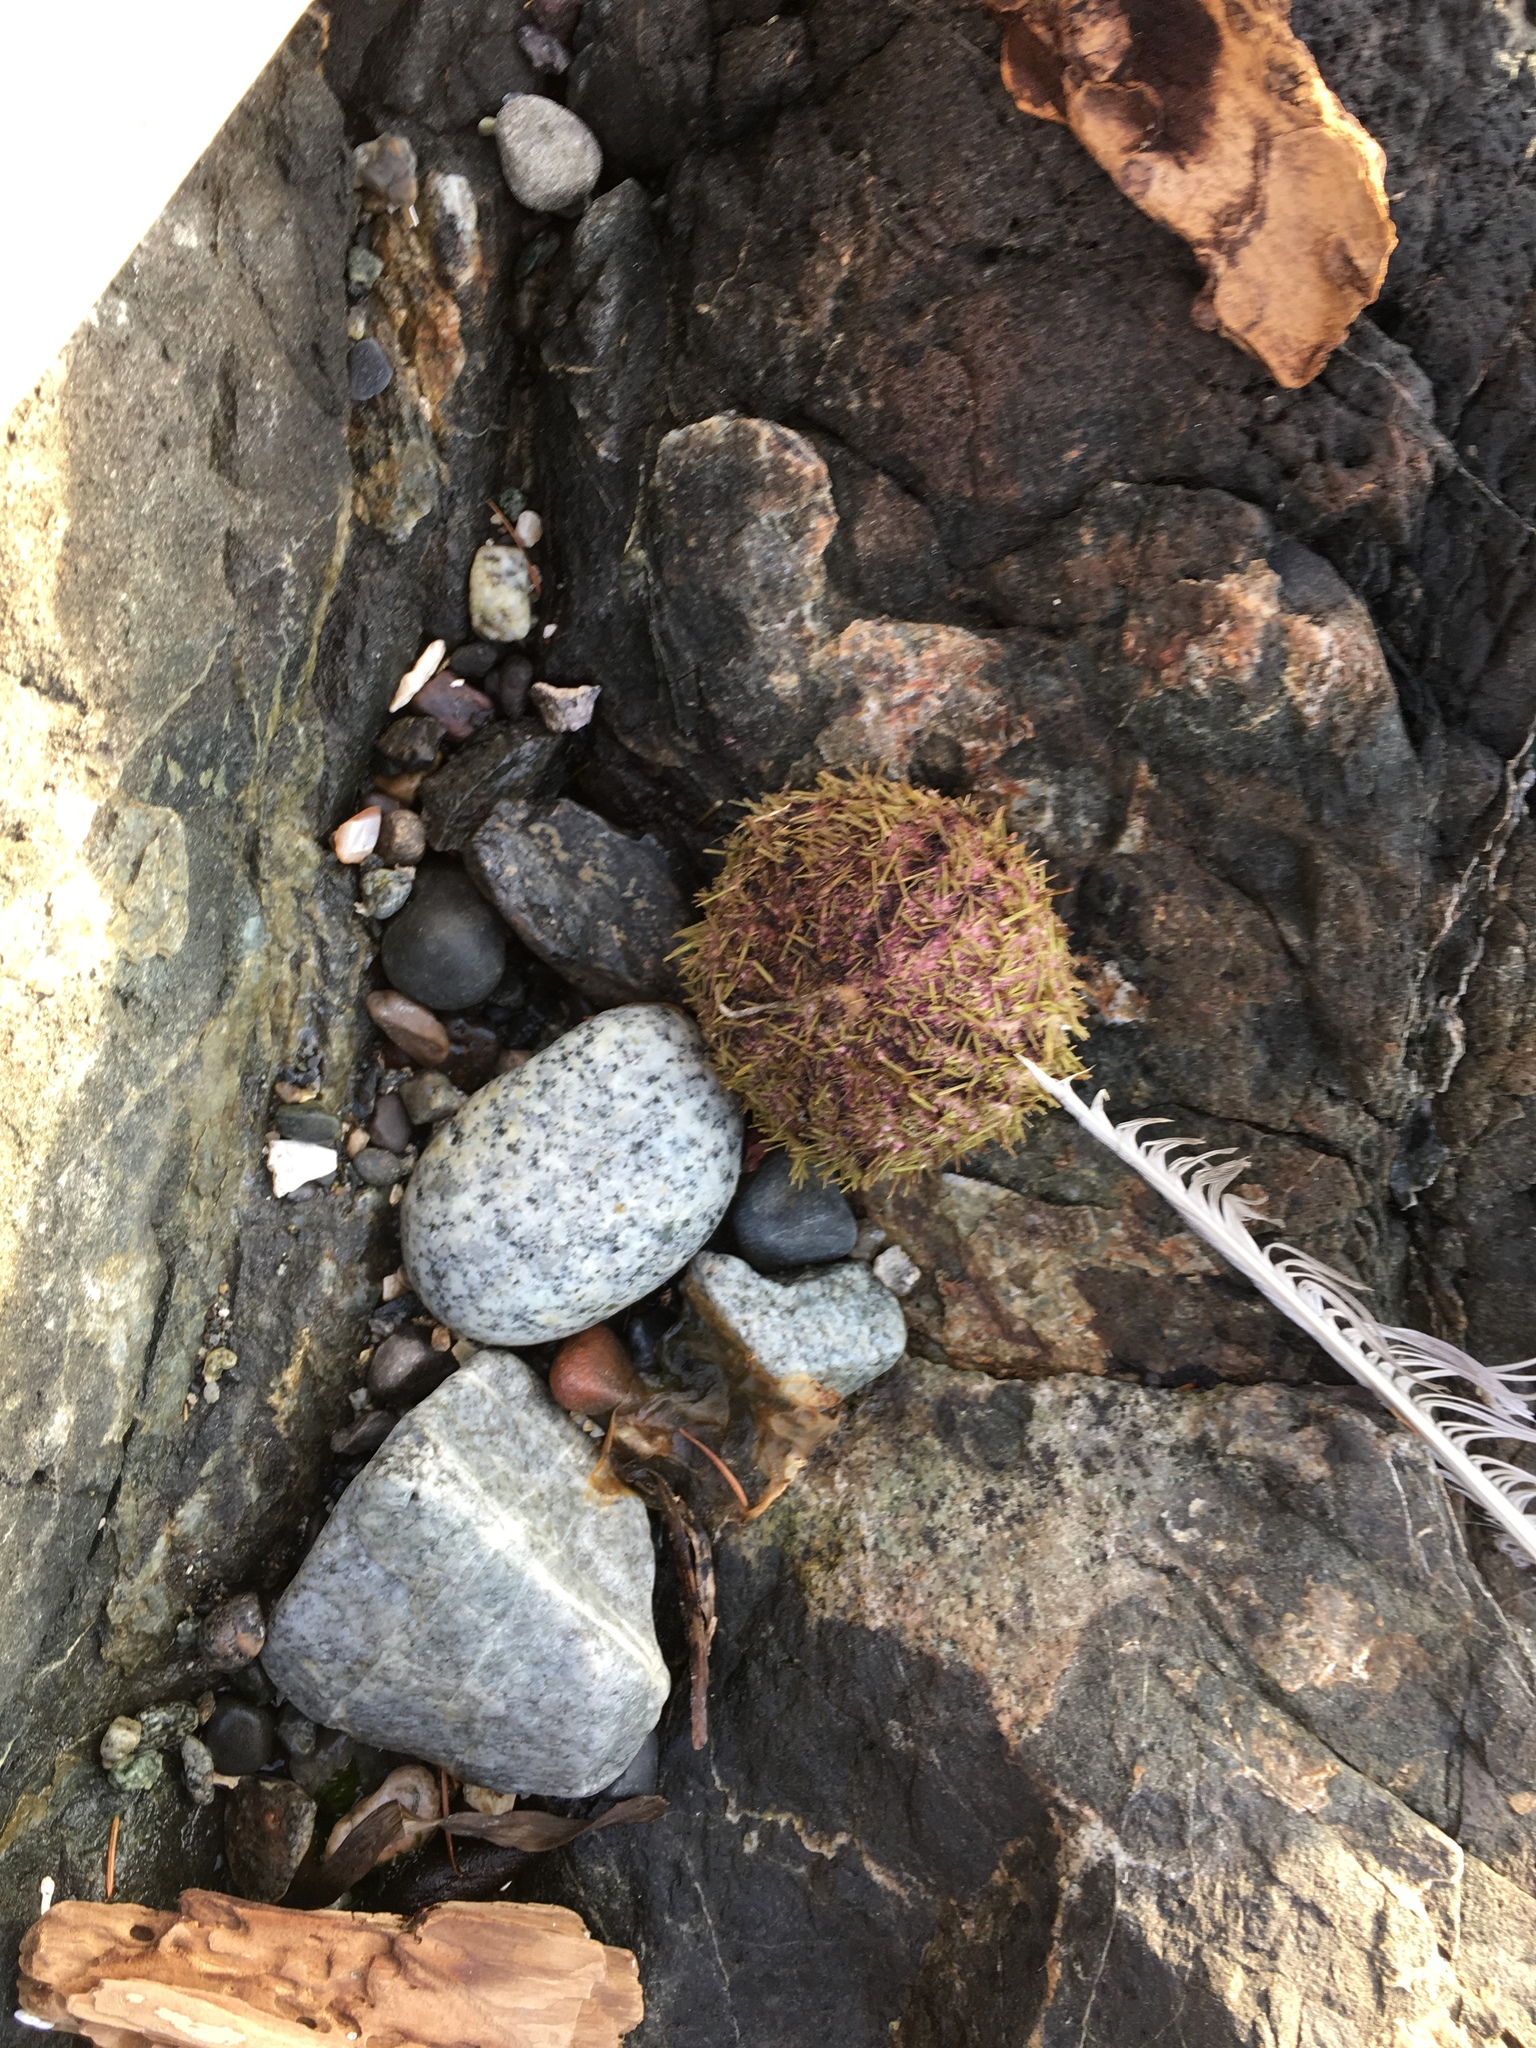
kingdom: Animalia
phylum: Echinodermata
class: Echinoidea
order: Camarodonta
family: Strongylocentrotidae
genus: Strongylocentrotus
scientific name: Strongylocentrotus droebachiensis
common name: Northern sea urchin
